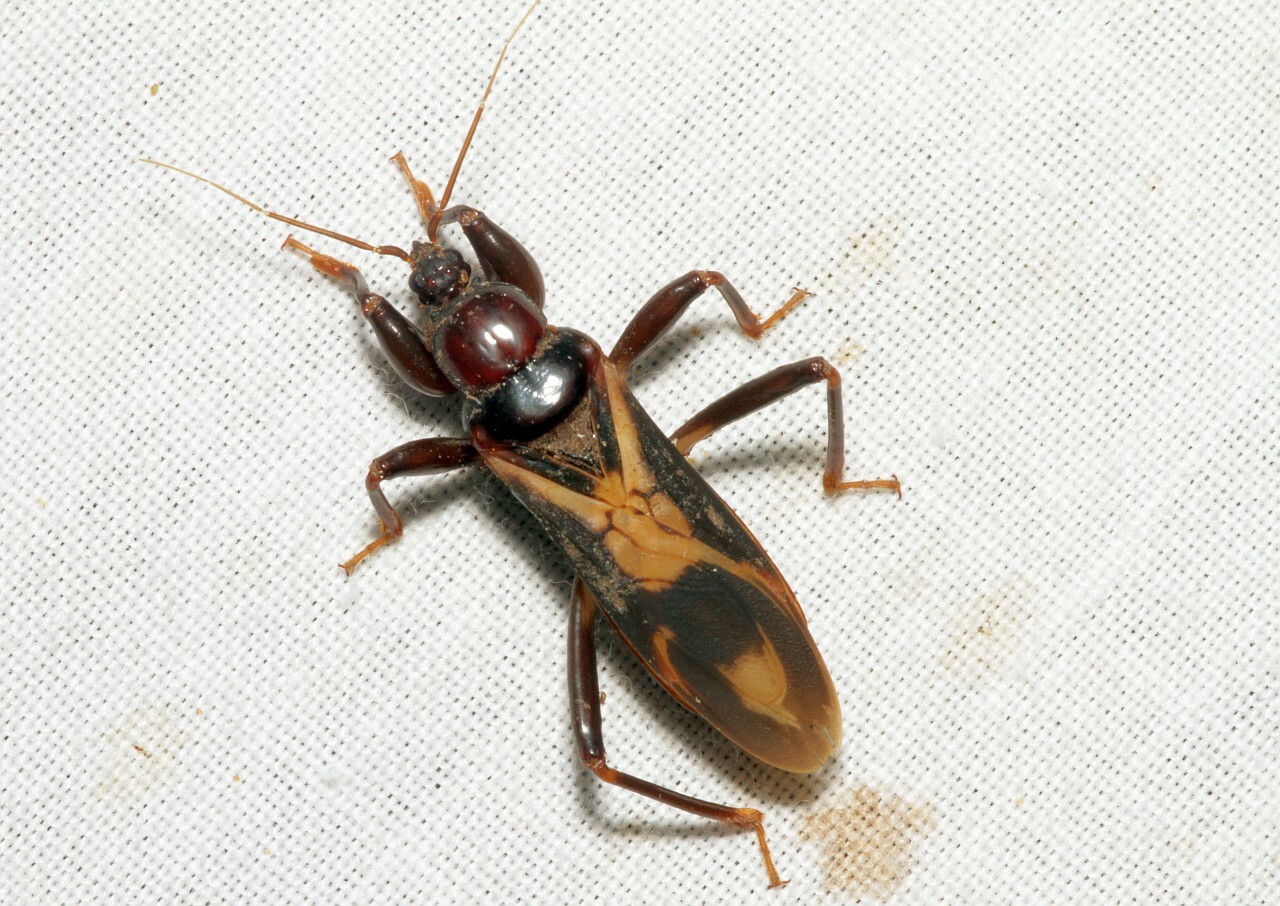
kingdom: Animalia
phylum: Arthropoda
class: Insecta
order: Hemiptera
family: Reduviidae
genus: Tydides
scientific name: Tydides rufus
